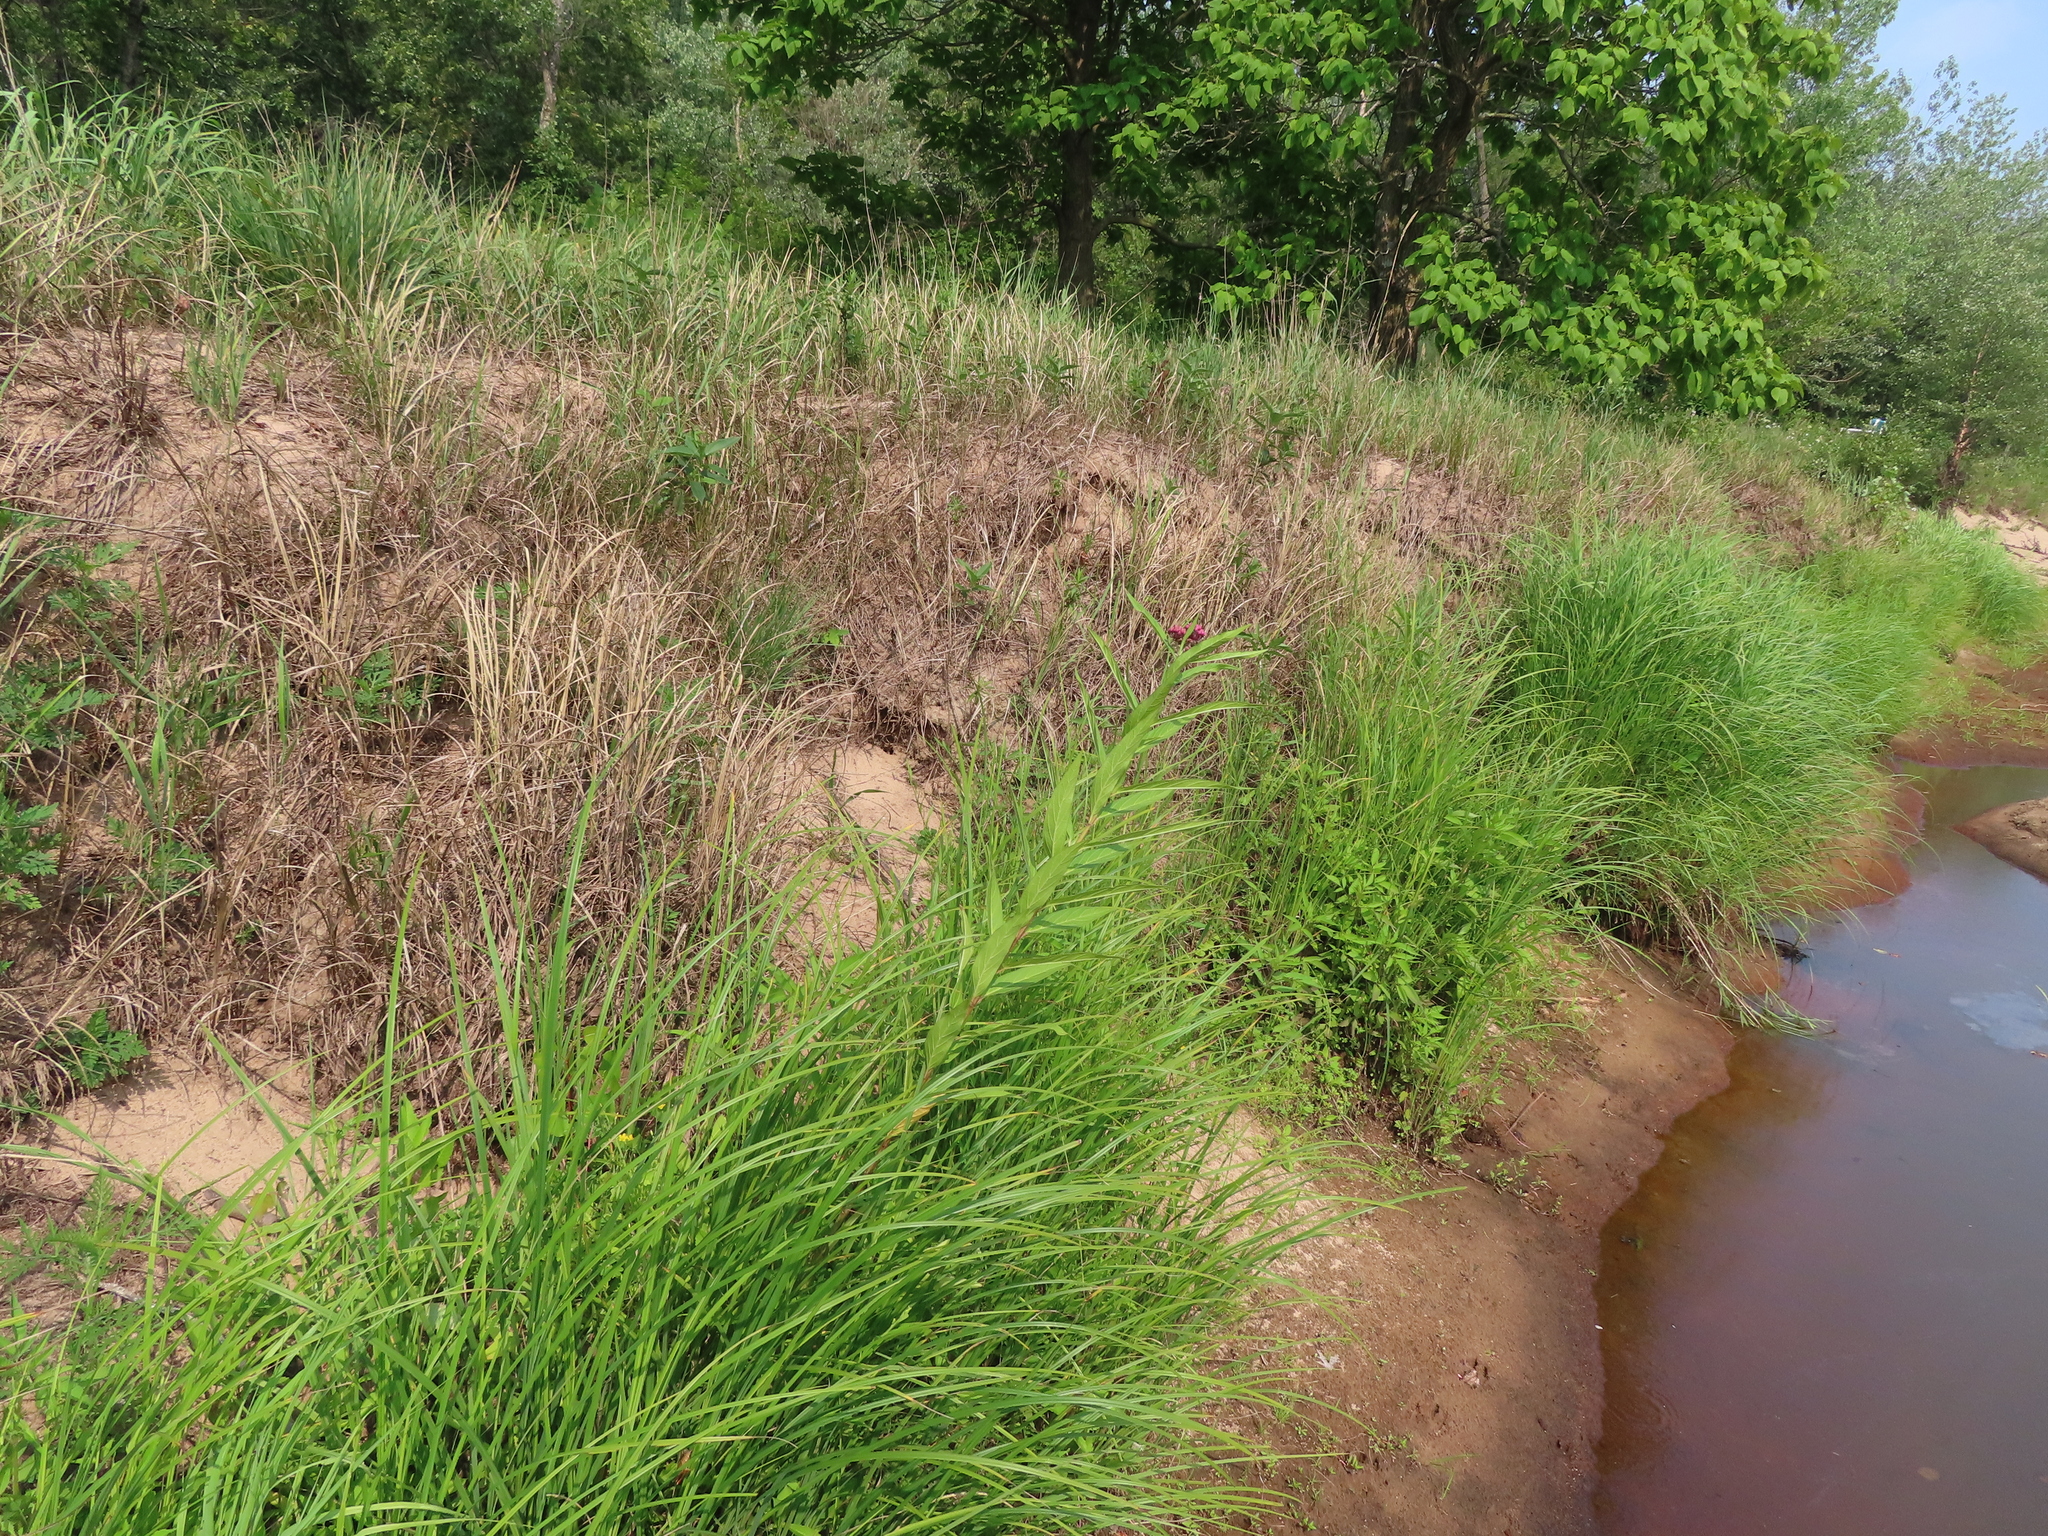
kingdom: Plantae
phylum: Tracheophyta
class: Magnoliopsida
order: Gentianales
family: Apocynaceae
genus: Asclepias
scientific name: Asclepias incarnata
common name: Swamp milkweed
